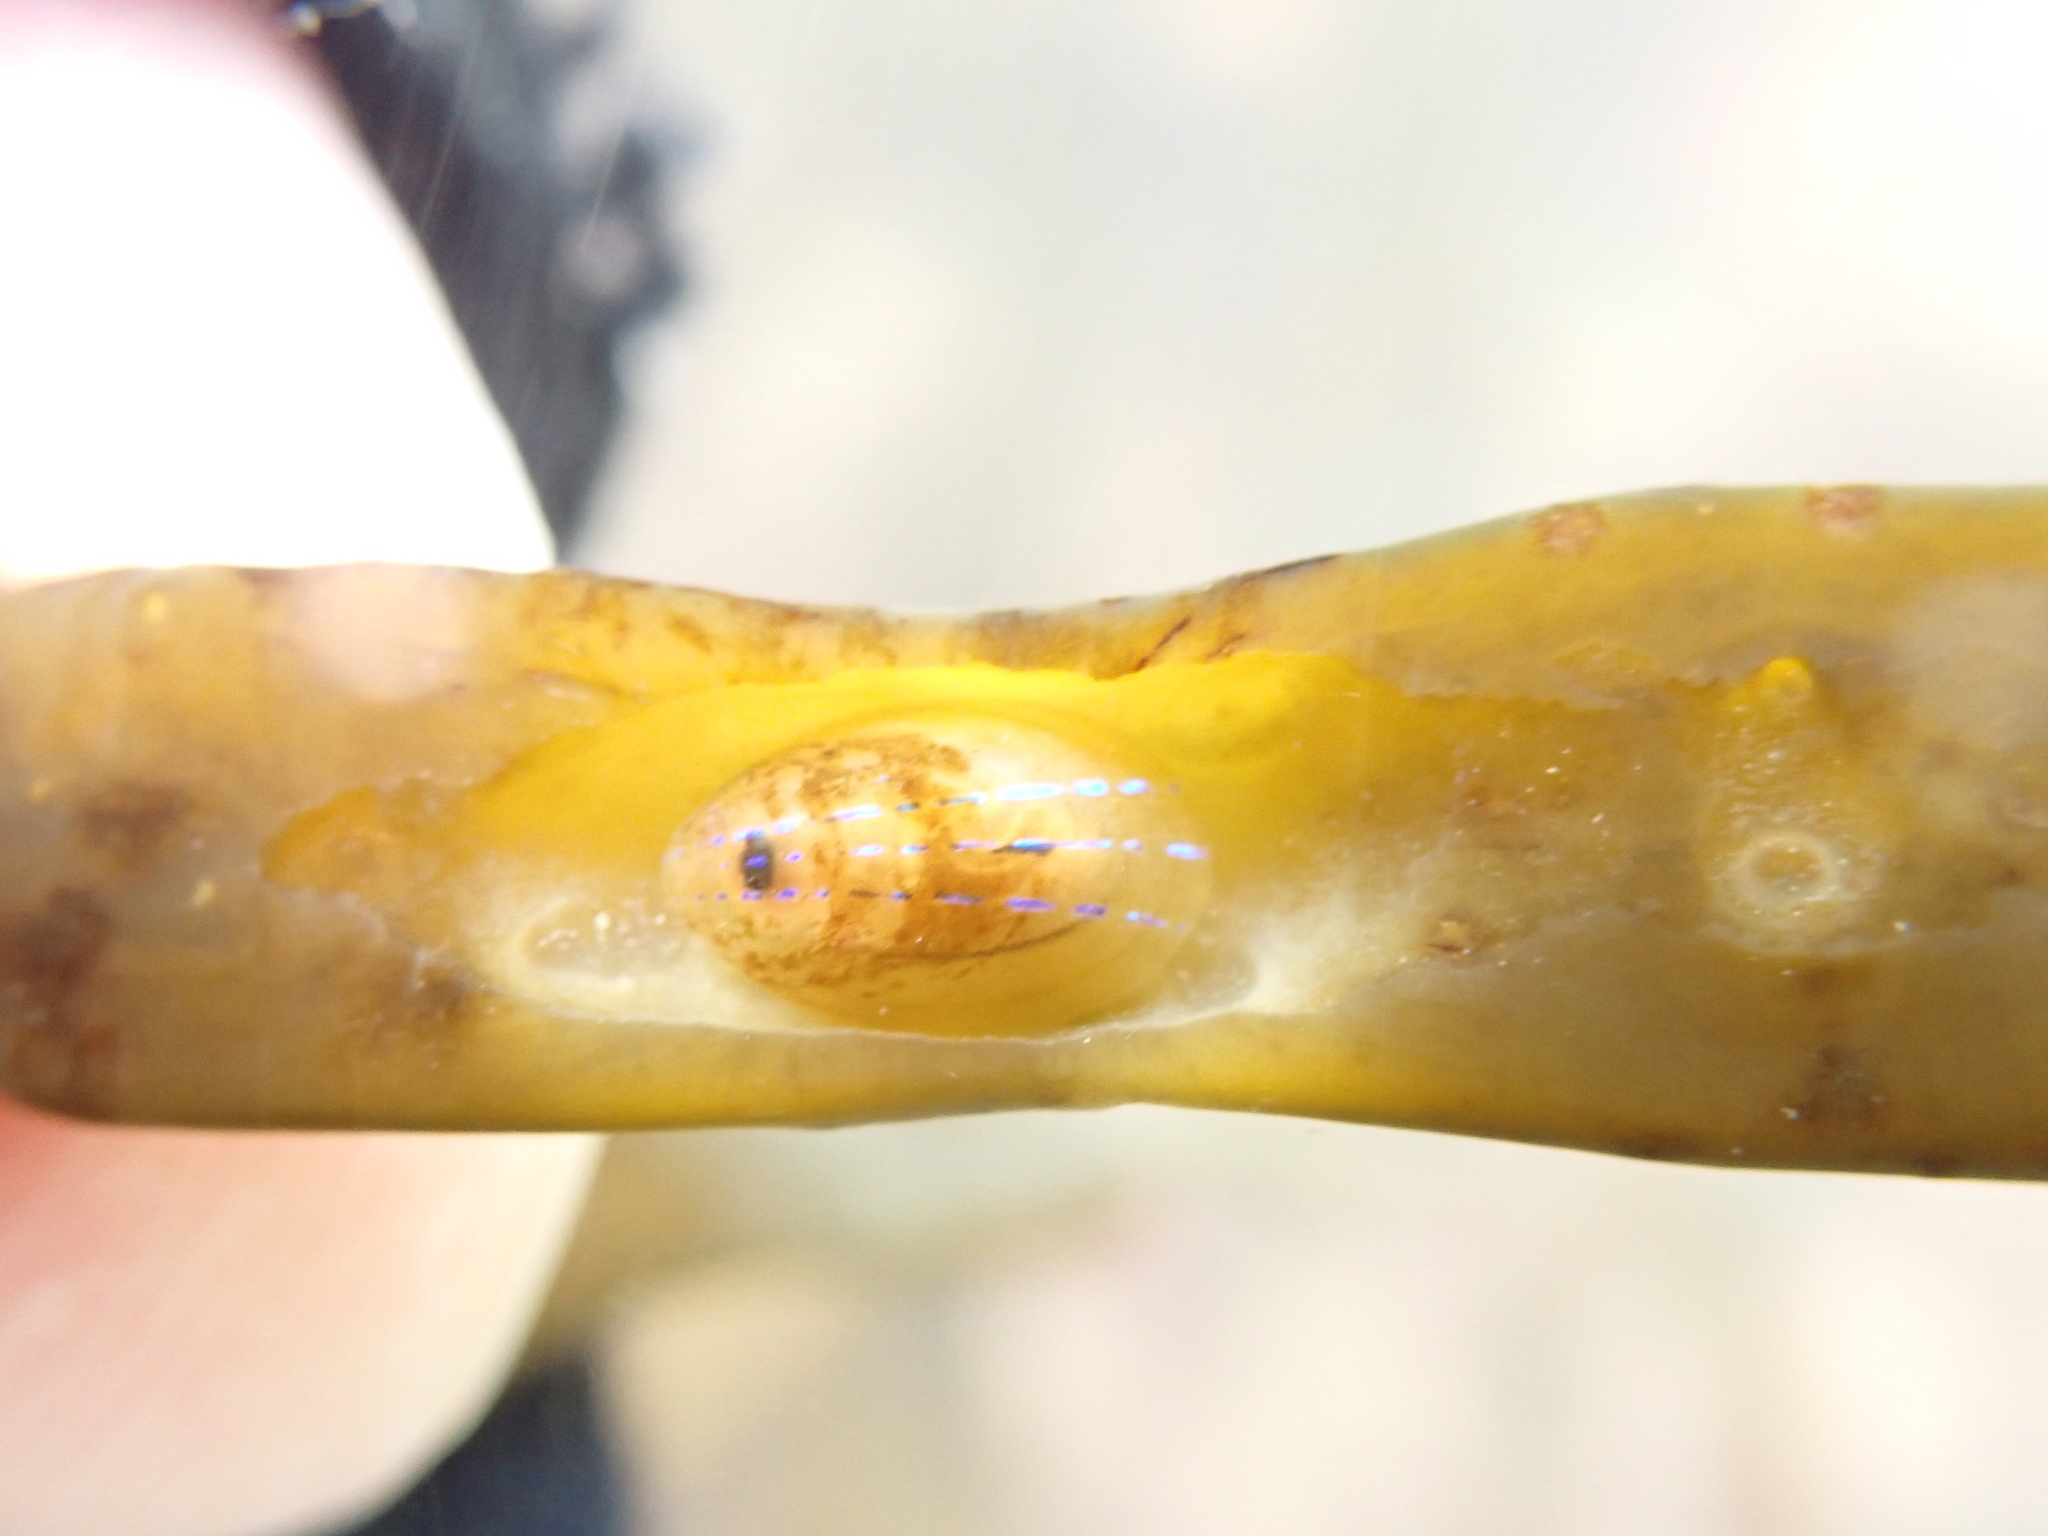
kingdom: Animalia
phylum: Mollusca
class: Gastropoda
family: Patellidae
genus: Patella
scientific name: Patella pellucida
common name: Blue-rayed limpet
